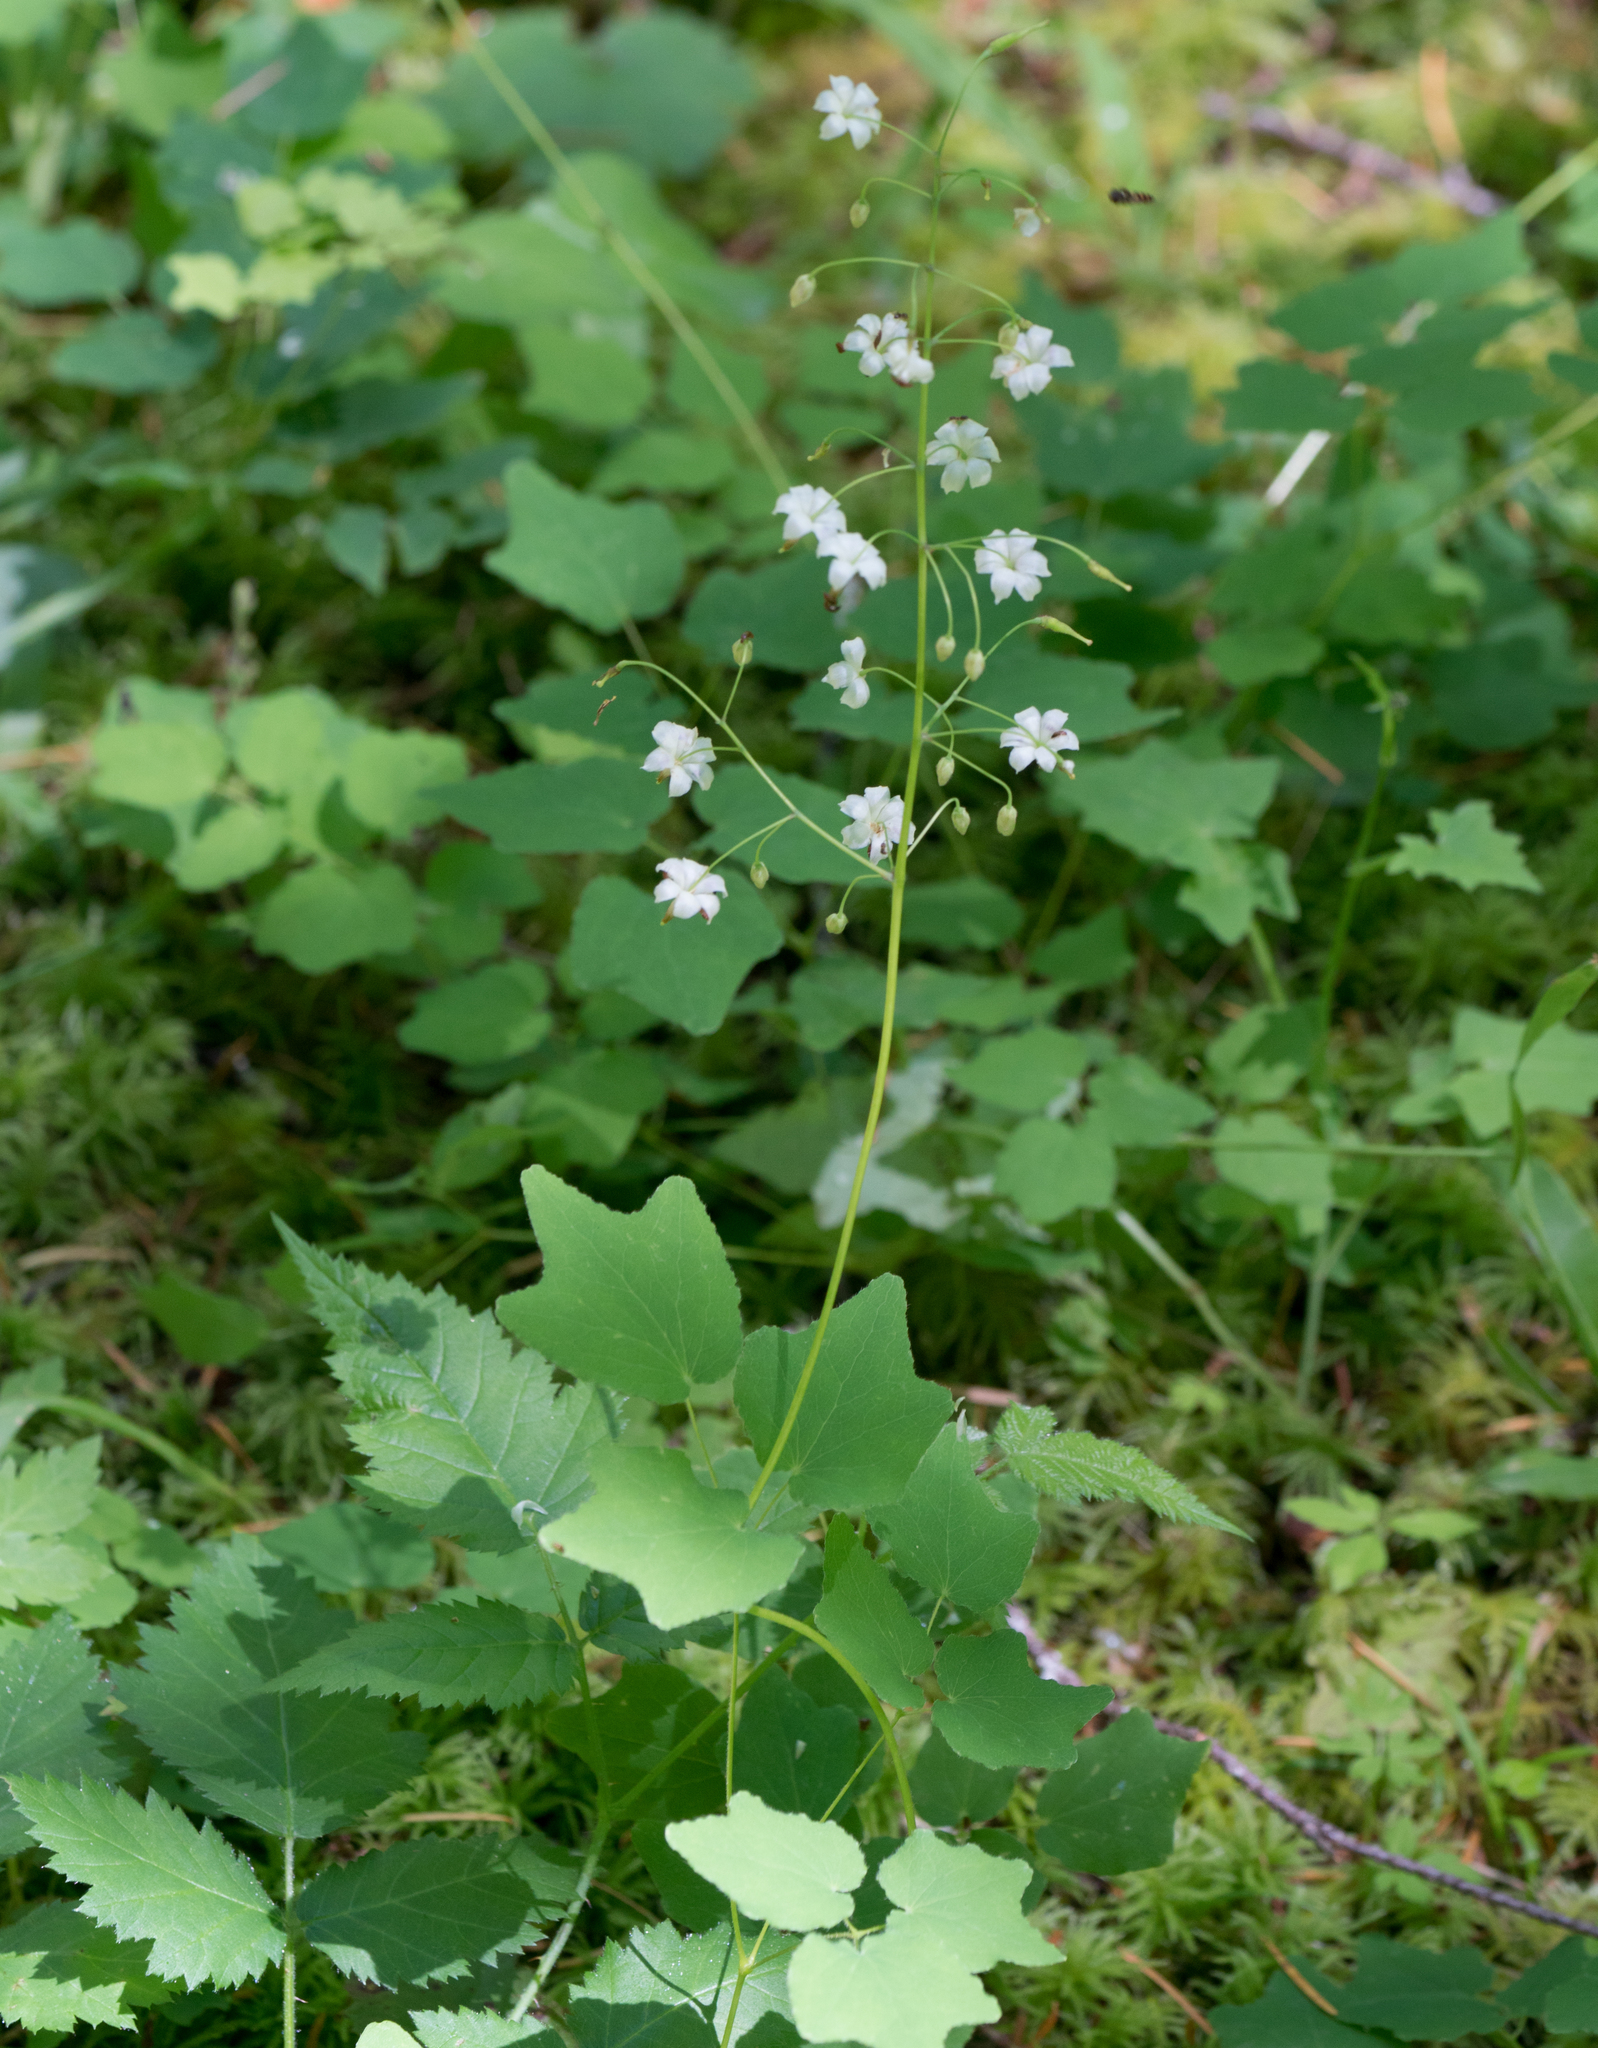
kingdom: Plantae
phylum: Tracheophyta
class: Magnoliopsida
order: Ranunculales
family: Berberidaceae
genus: Vancouveria
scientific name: Vancouveria hexandra
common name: Northern inside-out-flower
